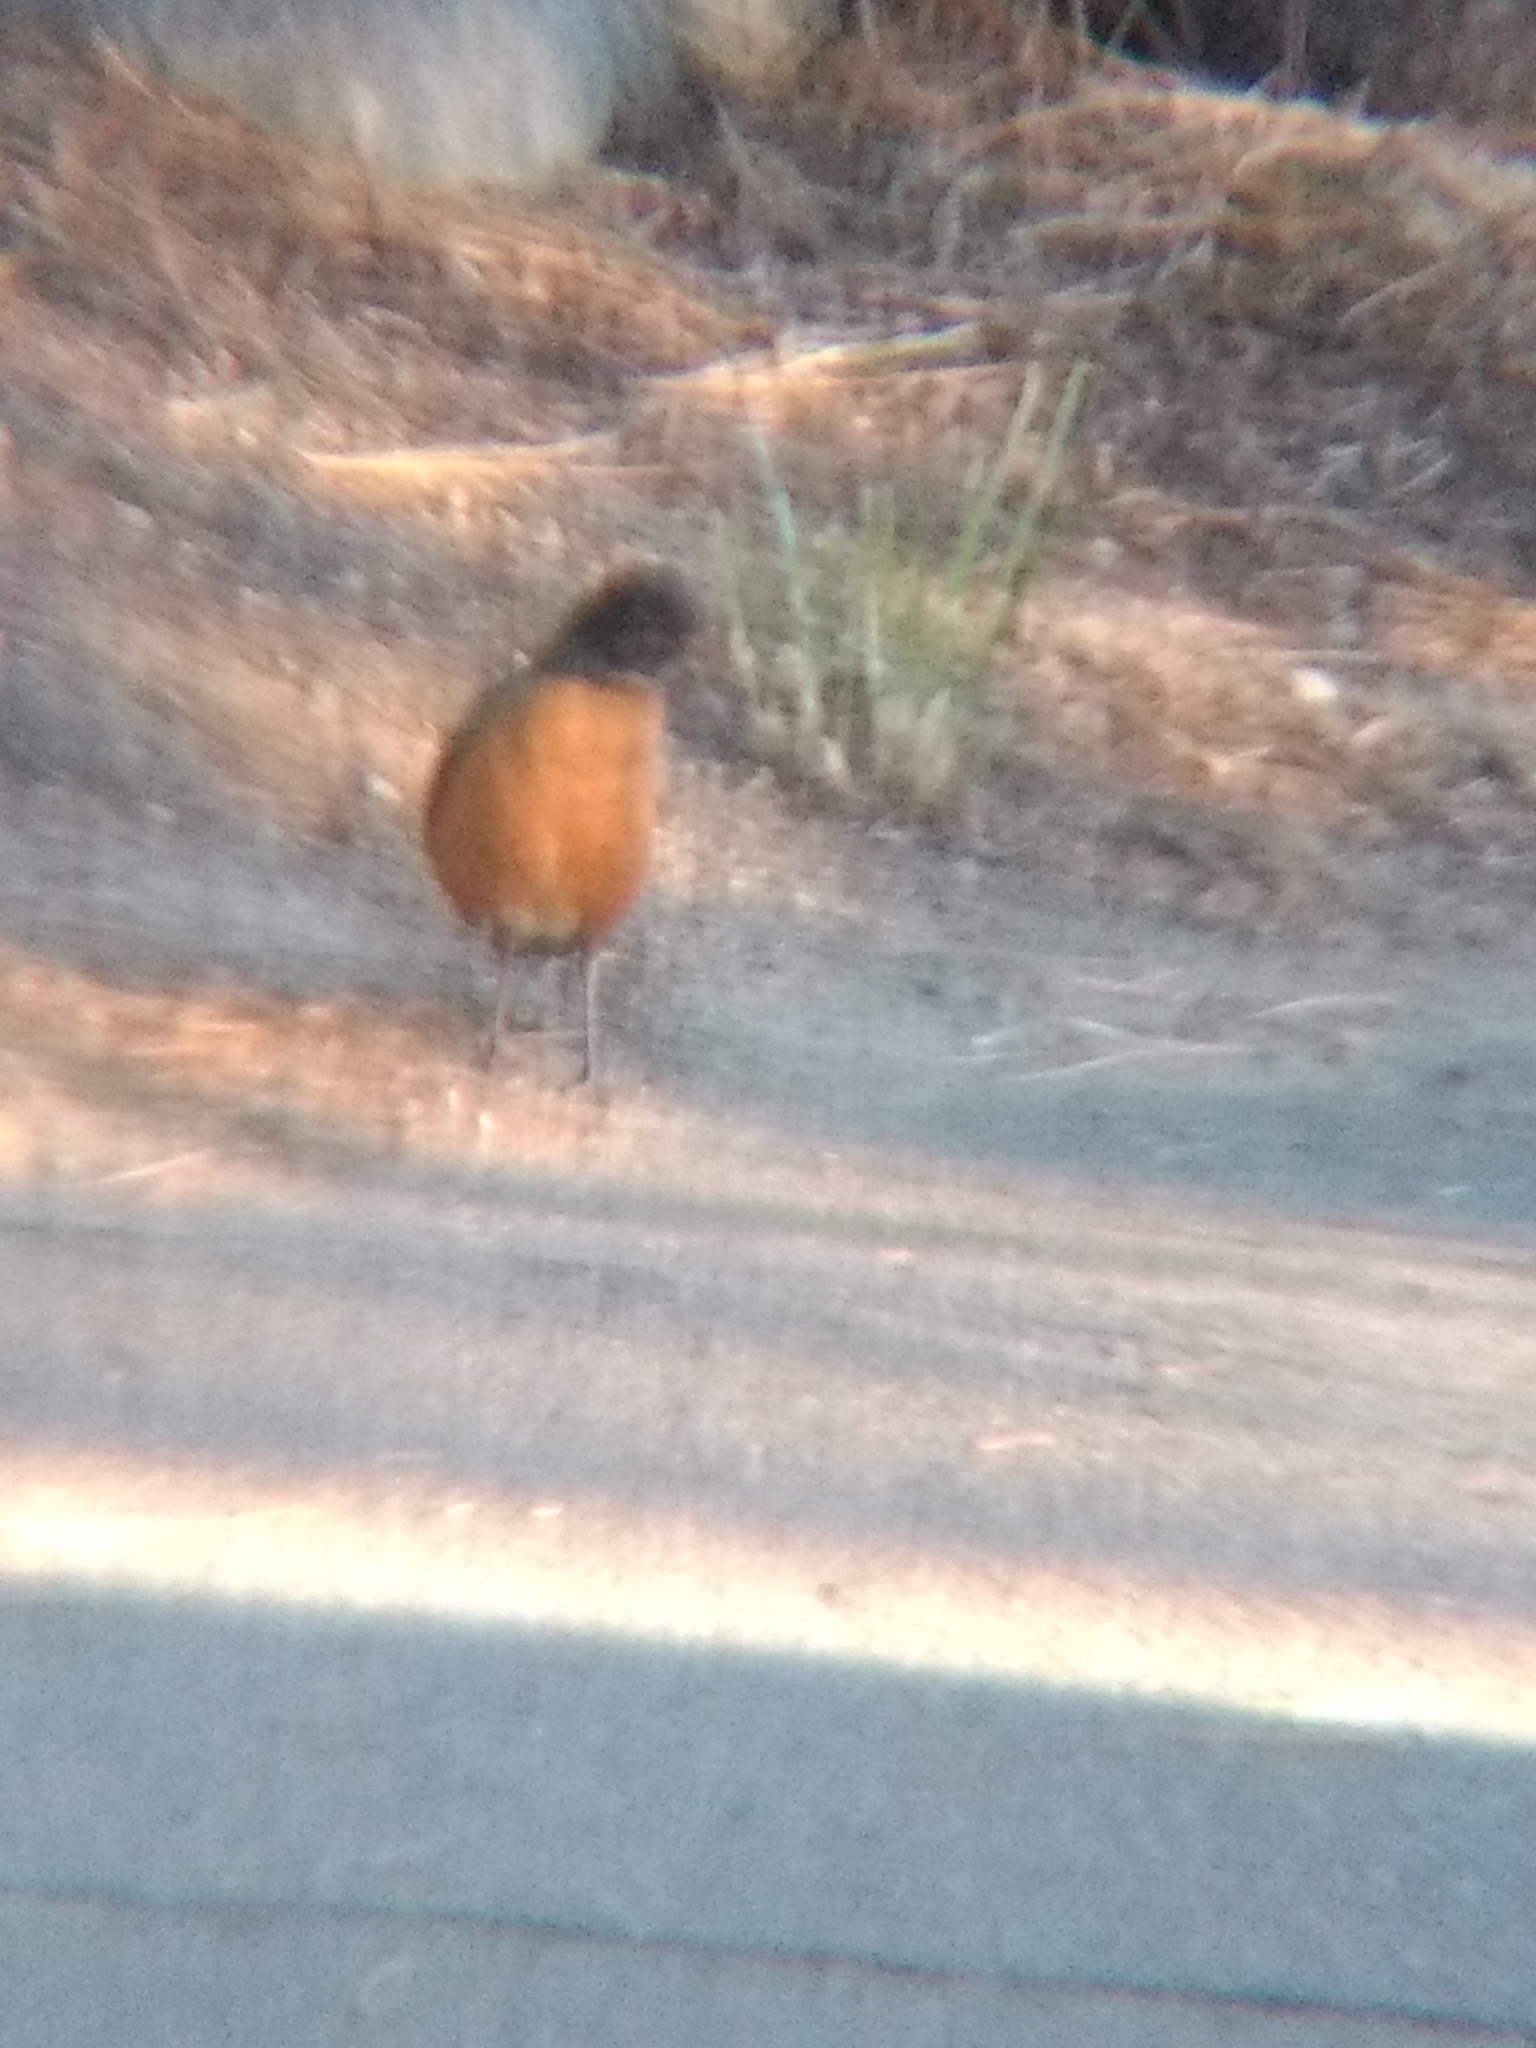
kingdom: Animalia
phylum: Chordata
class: Aves
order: Passeriformes
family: Turdidae
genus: Turdus
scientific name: Turdus migratorius
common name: American robin
